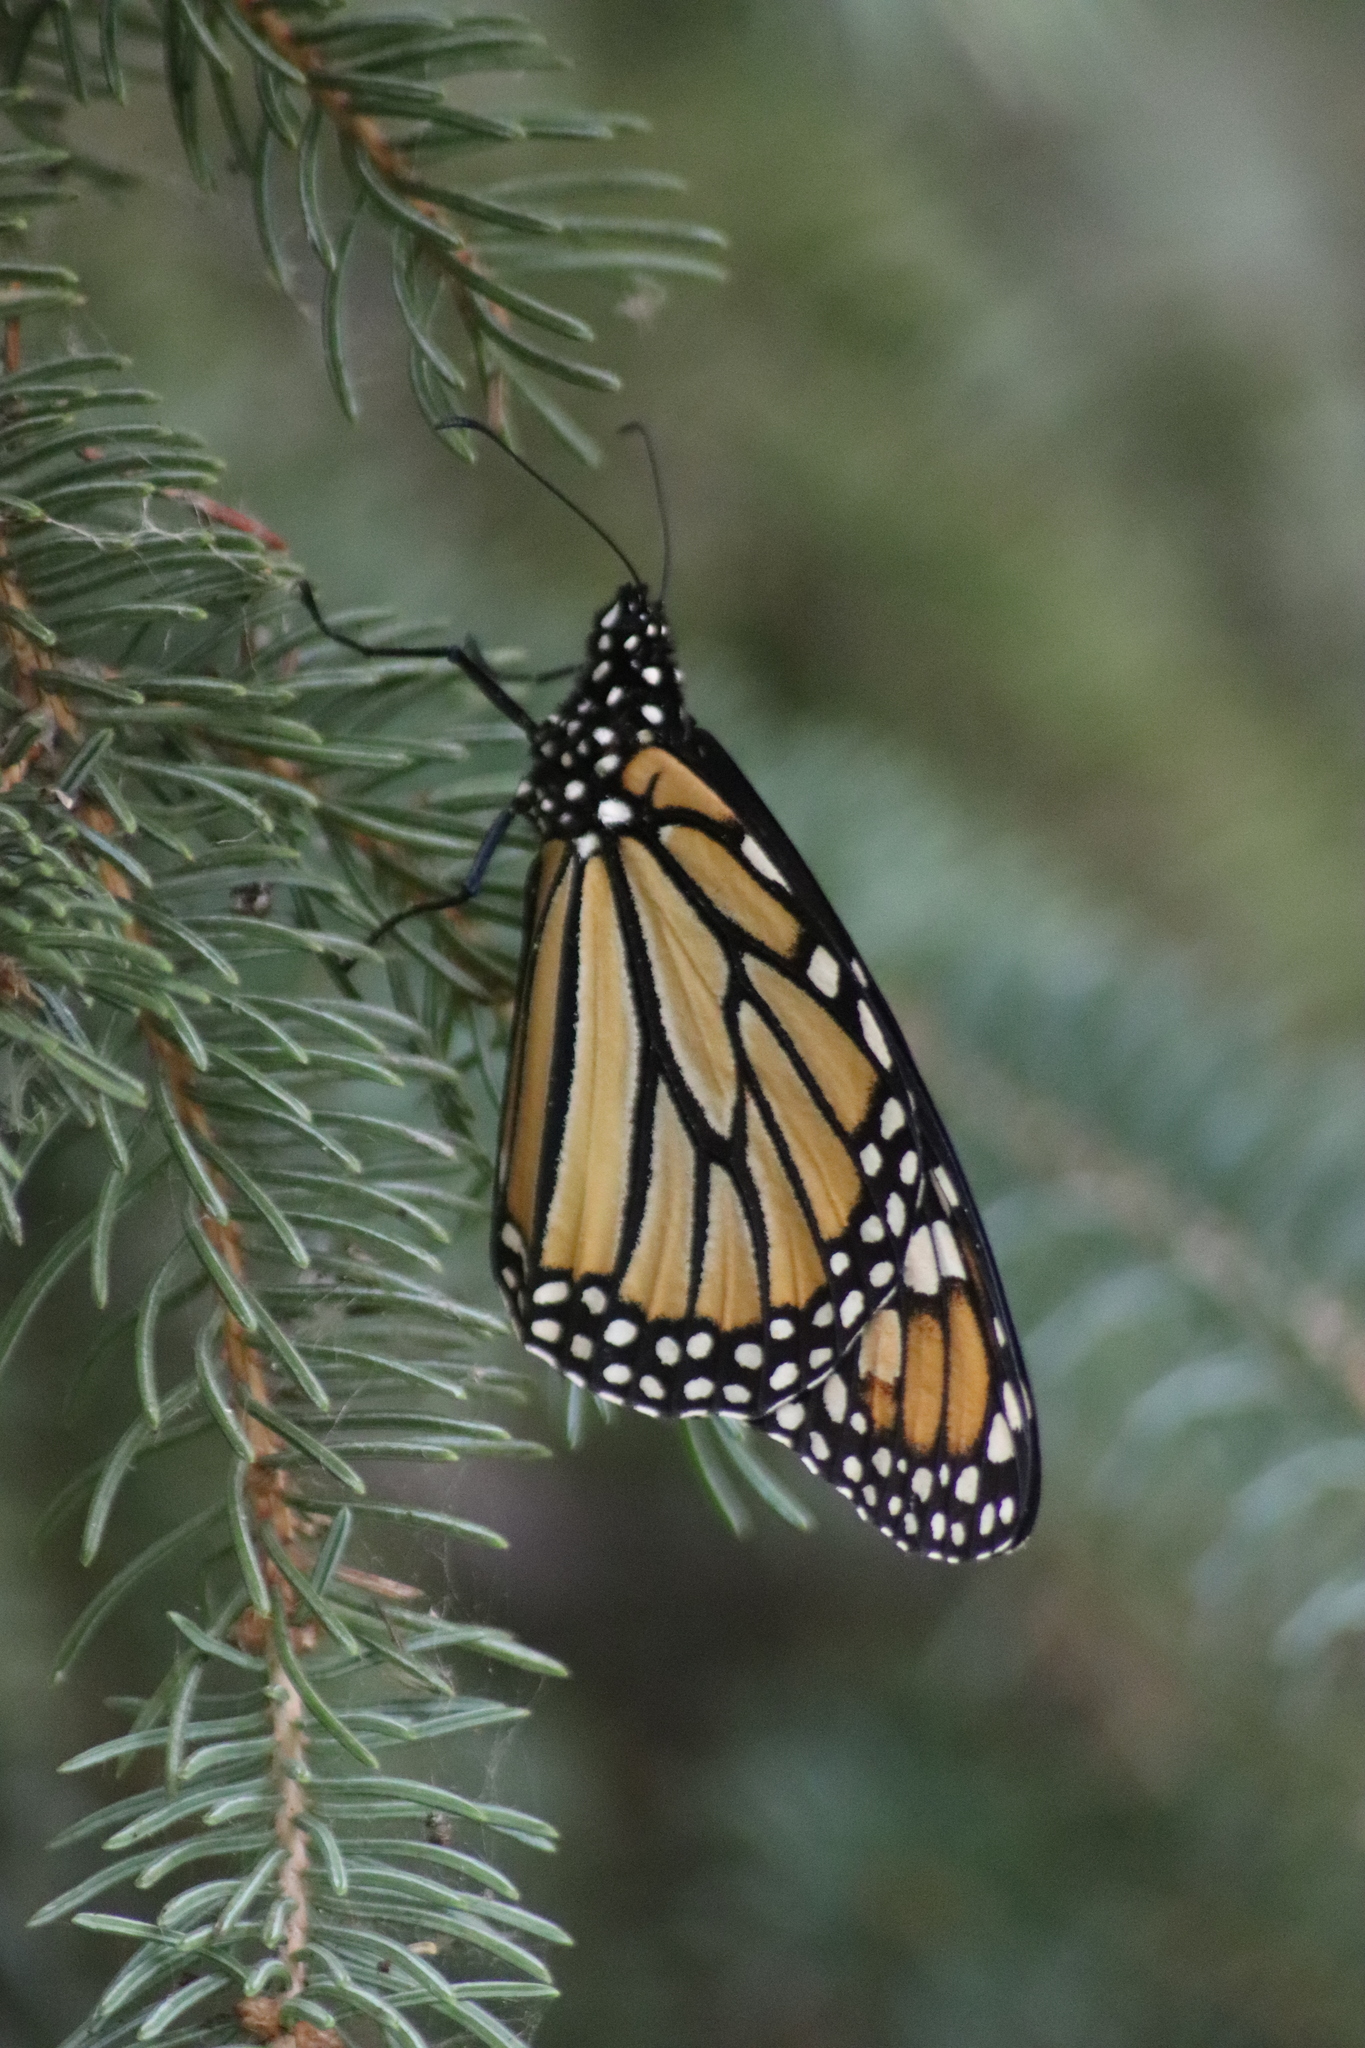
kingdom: Animalia
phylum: Arthropoda
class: Insecta
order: Lepidoptera
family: Nymphalidae
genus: Danaus
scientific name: Danaus plexippus
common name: Monarch
